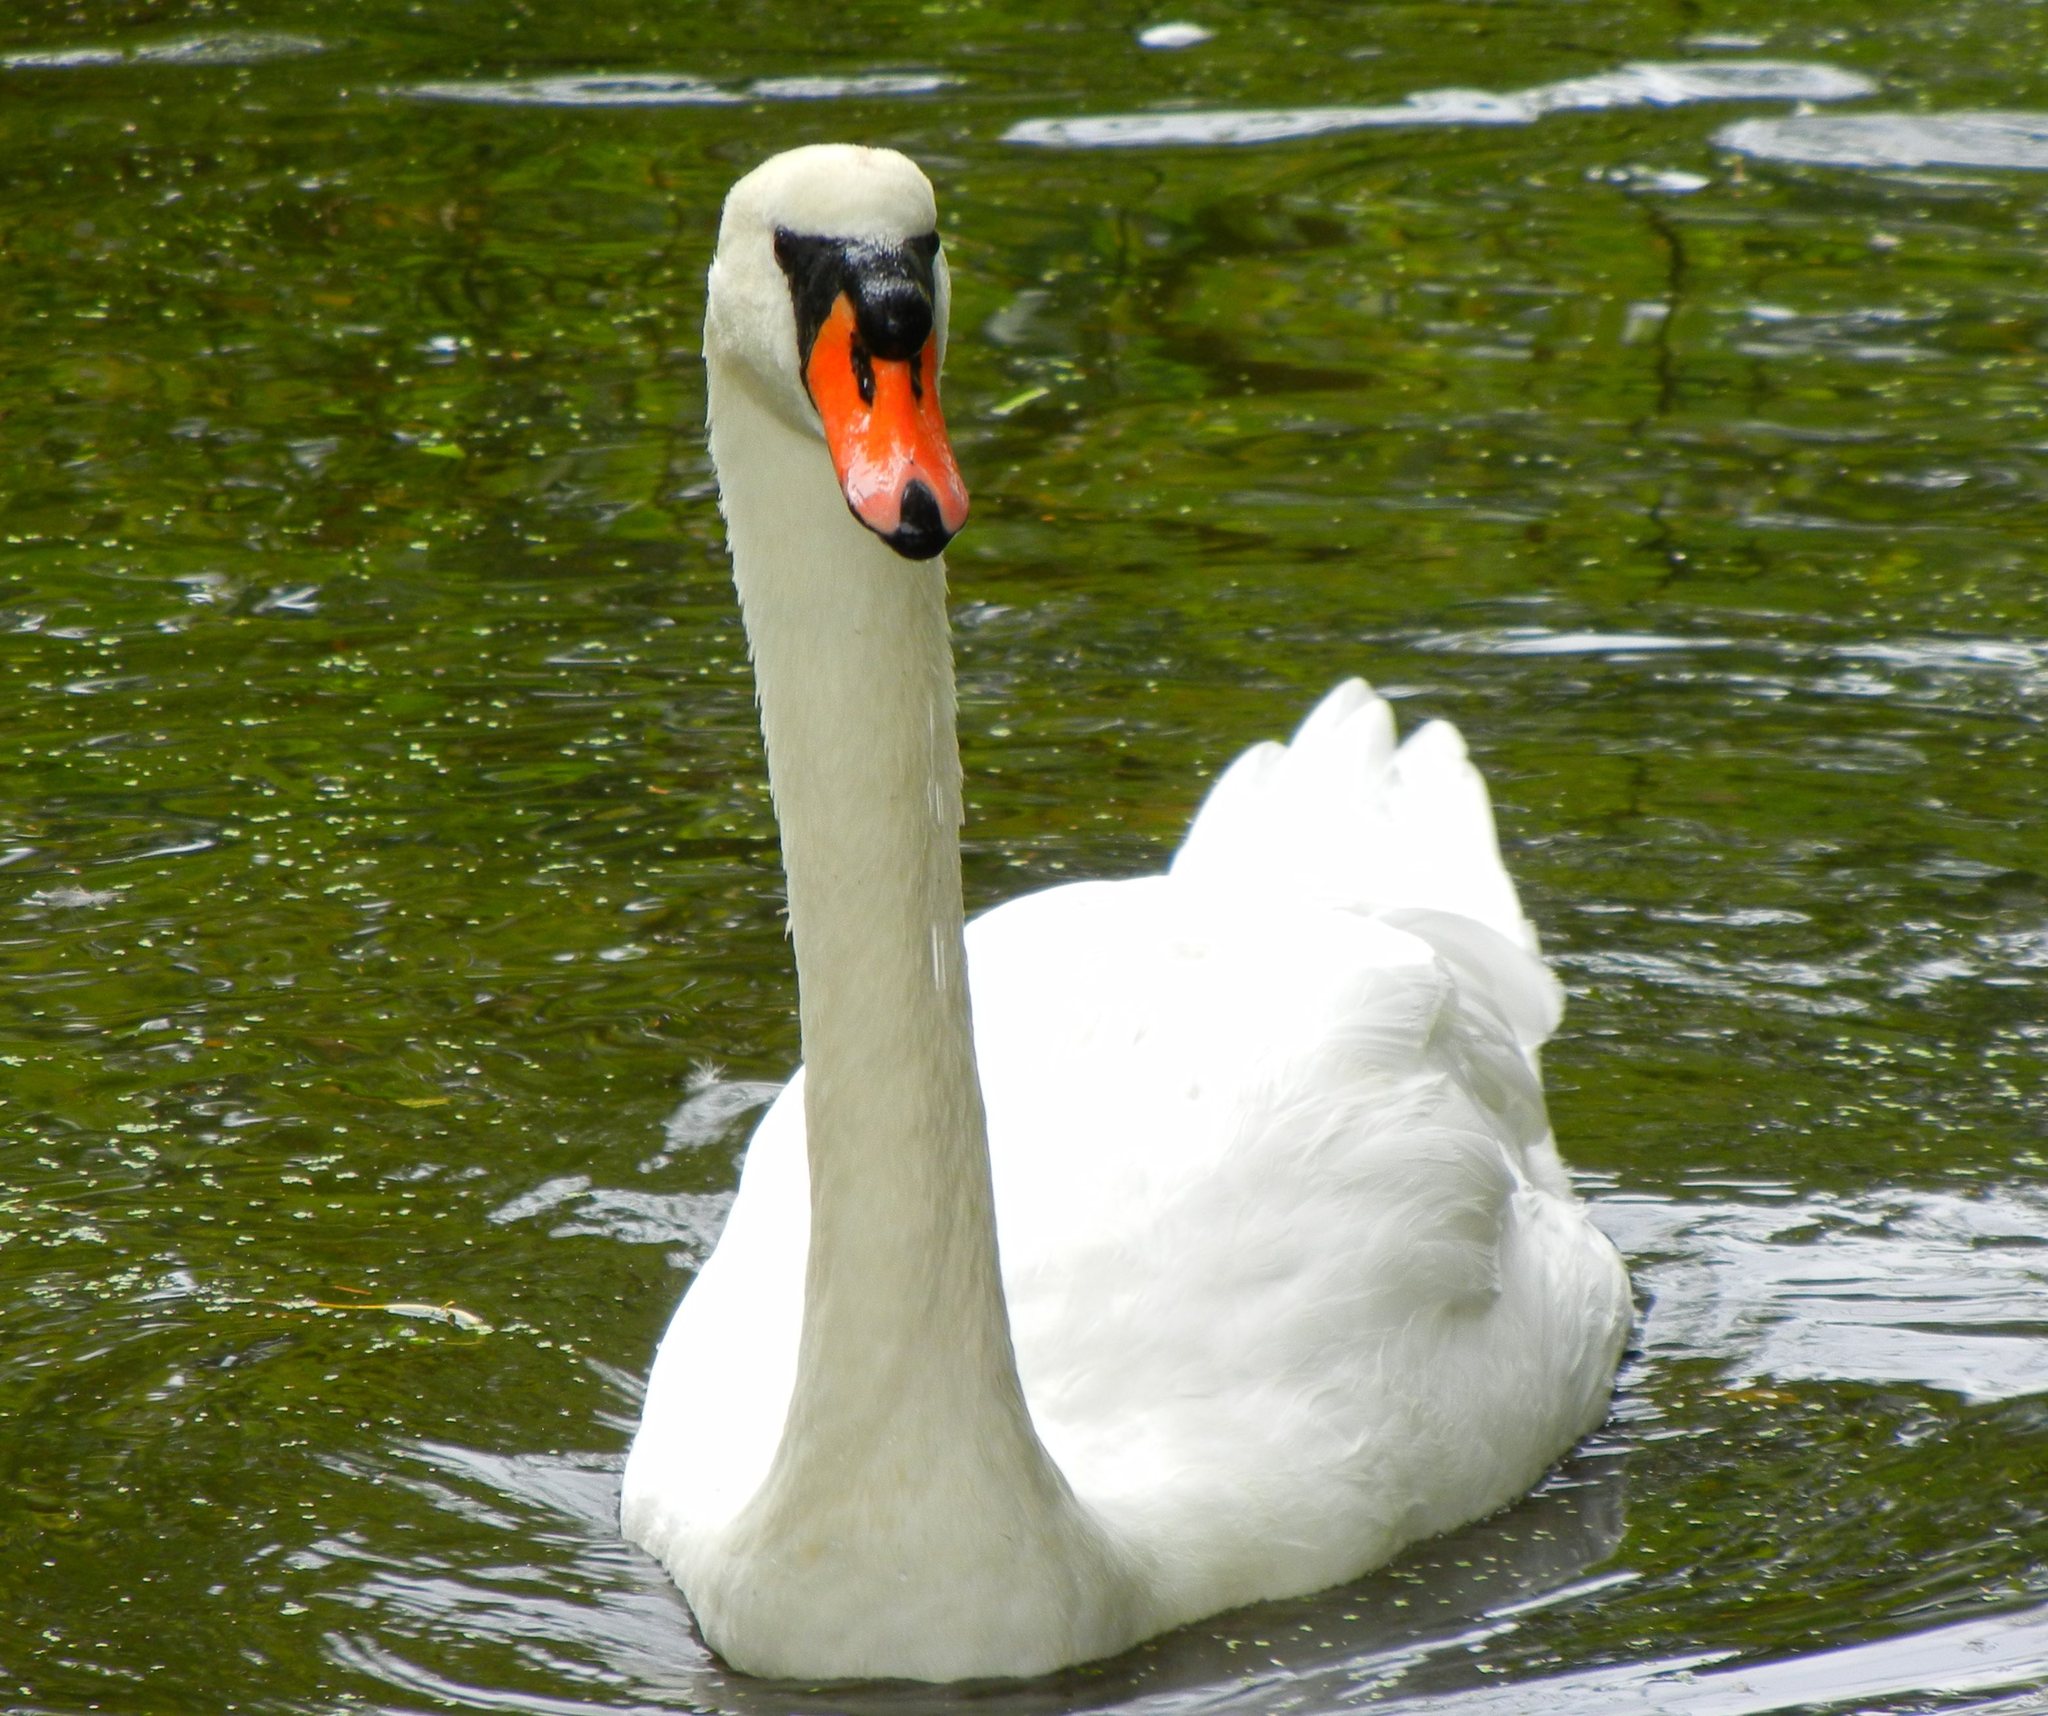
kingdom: Animalia
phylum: Chordata
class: Aves
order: Anseriformes
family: Anatidae
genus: Cygnus
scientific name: Cygnus olor
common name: Mute swan
